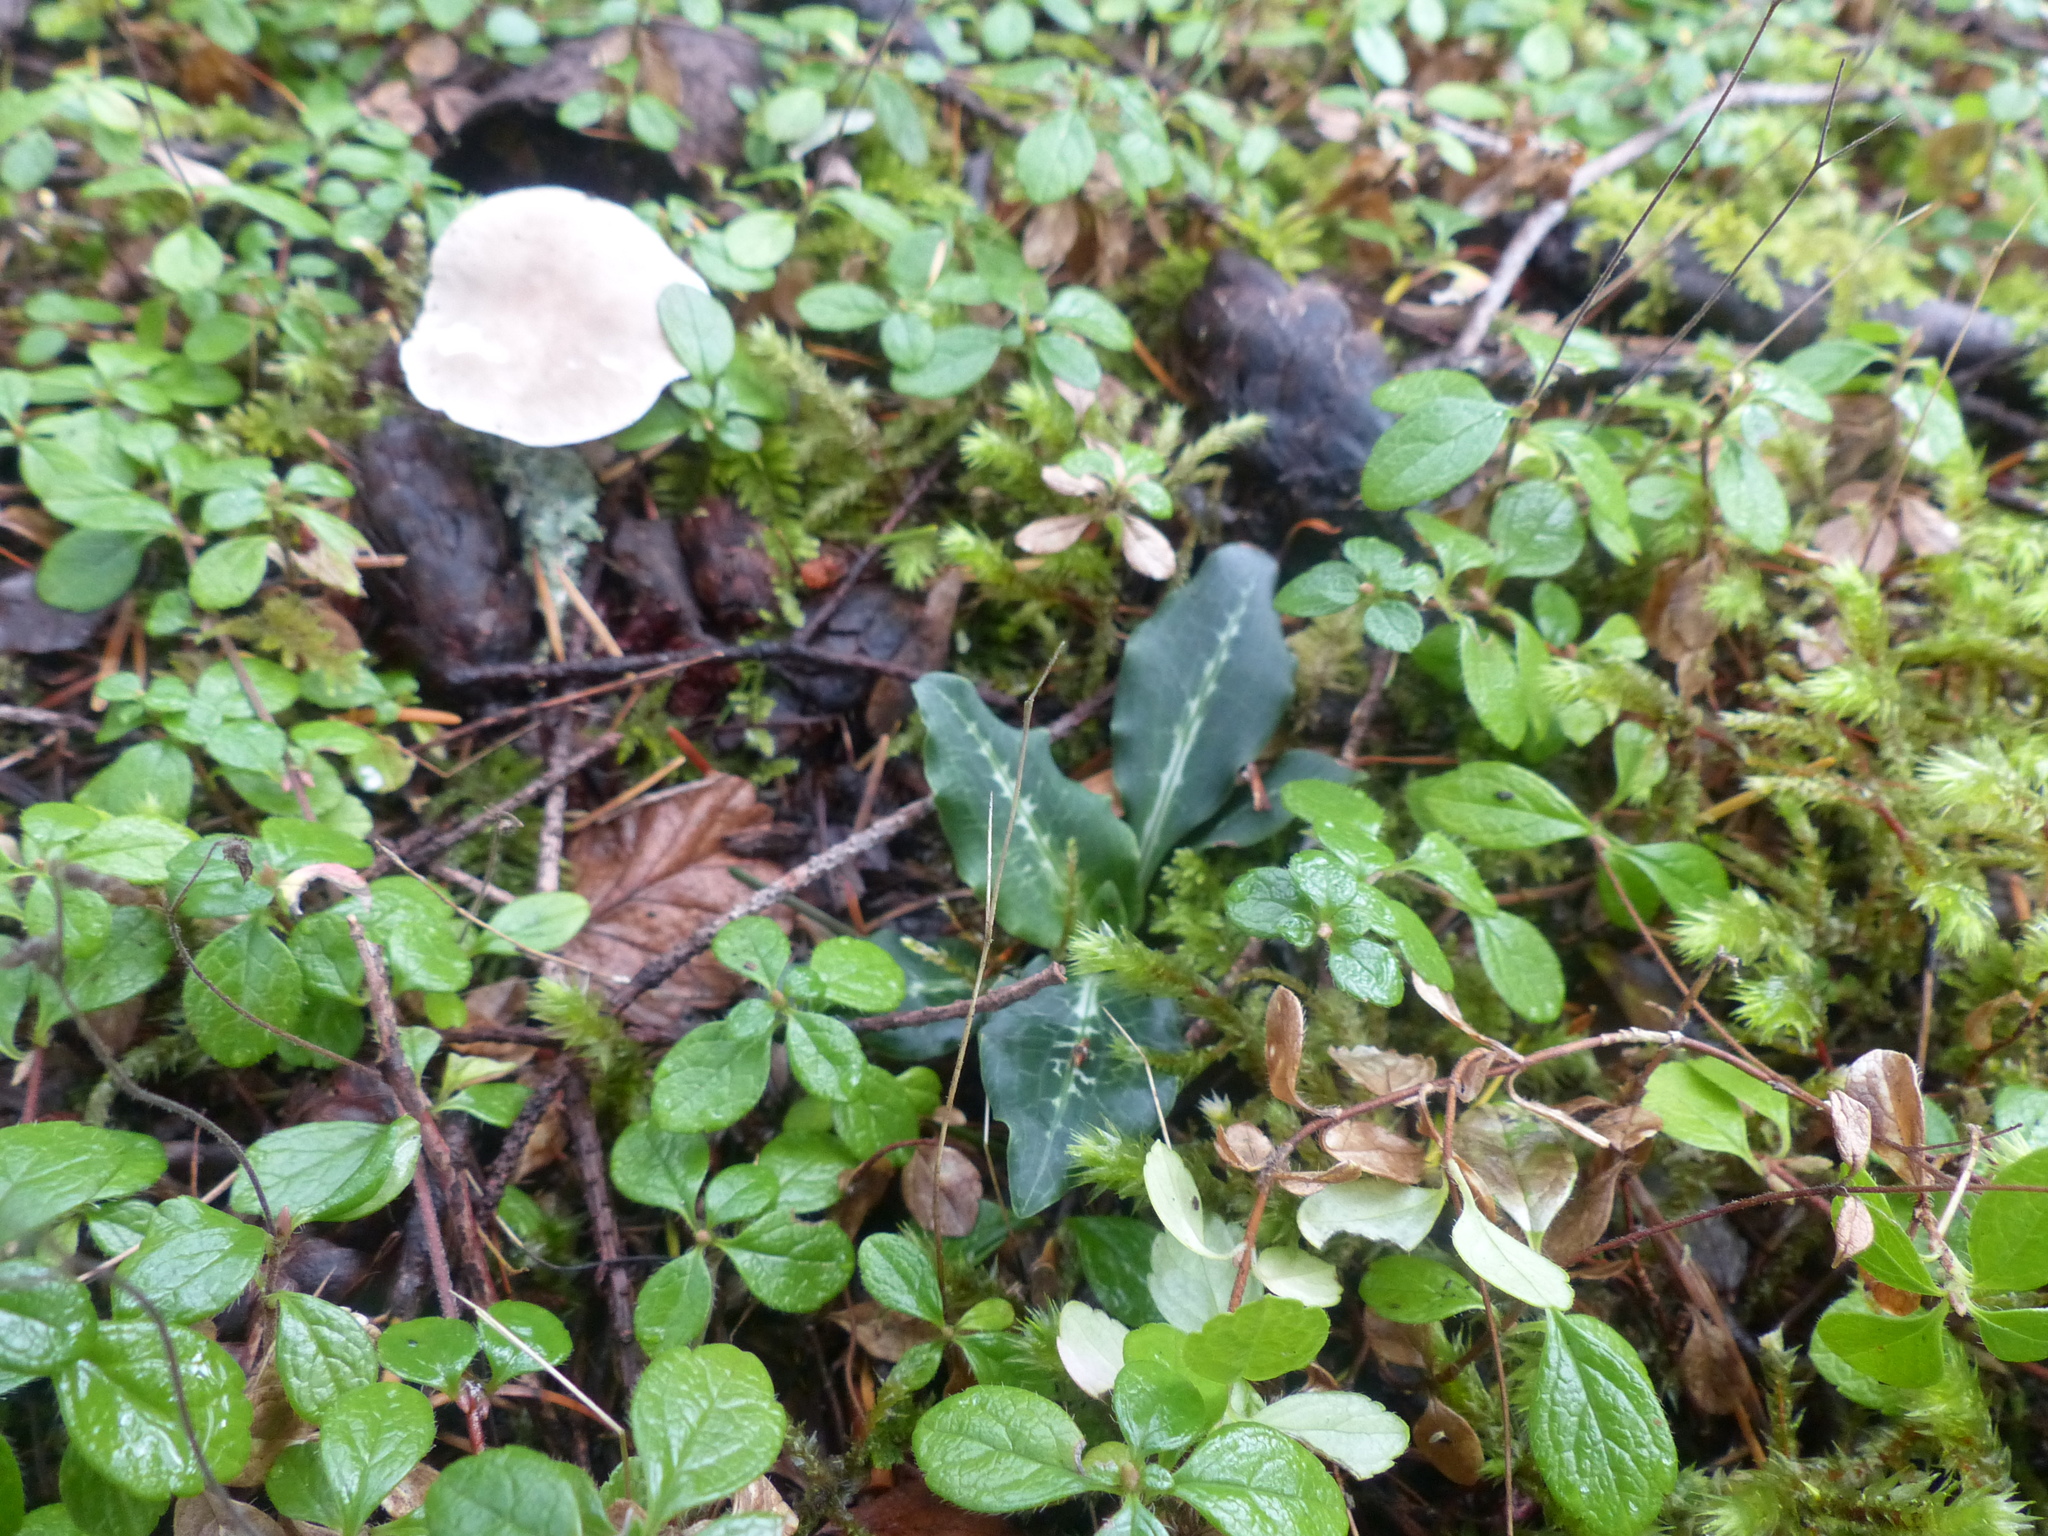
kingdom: Plantae
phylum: Tracheophyta
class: Liliopsida
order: Asparagales
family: Orchidaceae
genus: Goodyera
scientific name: Goodyera oblongifolia
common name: Giant rattlesnake-plantain
